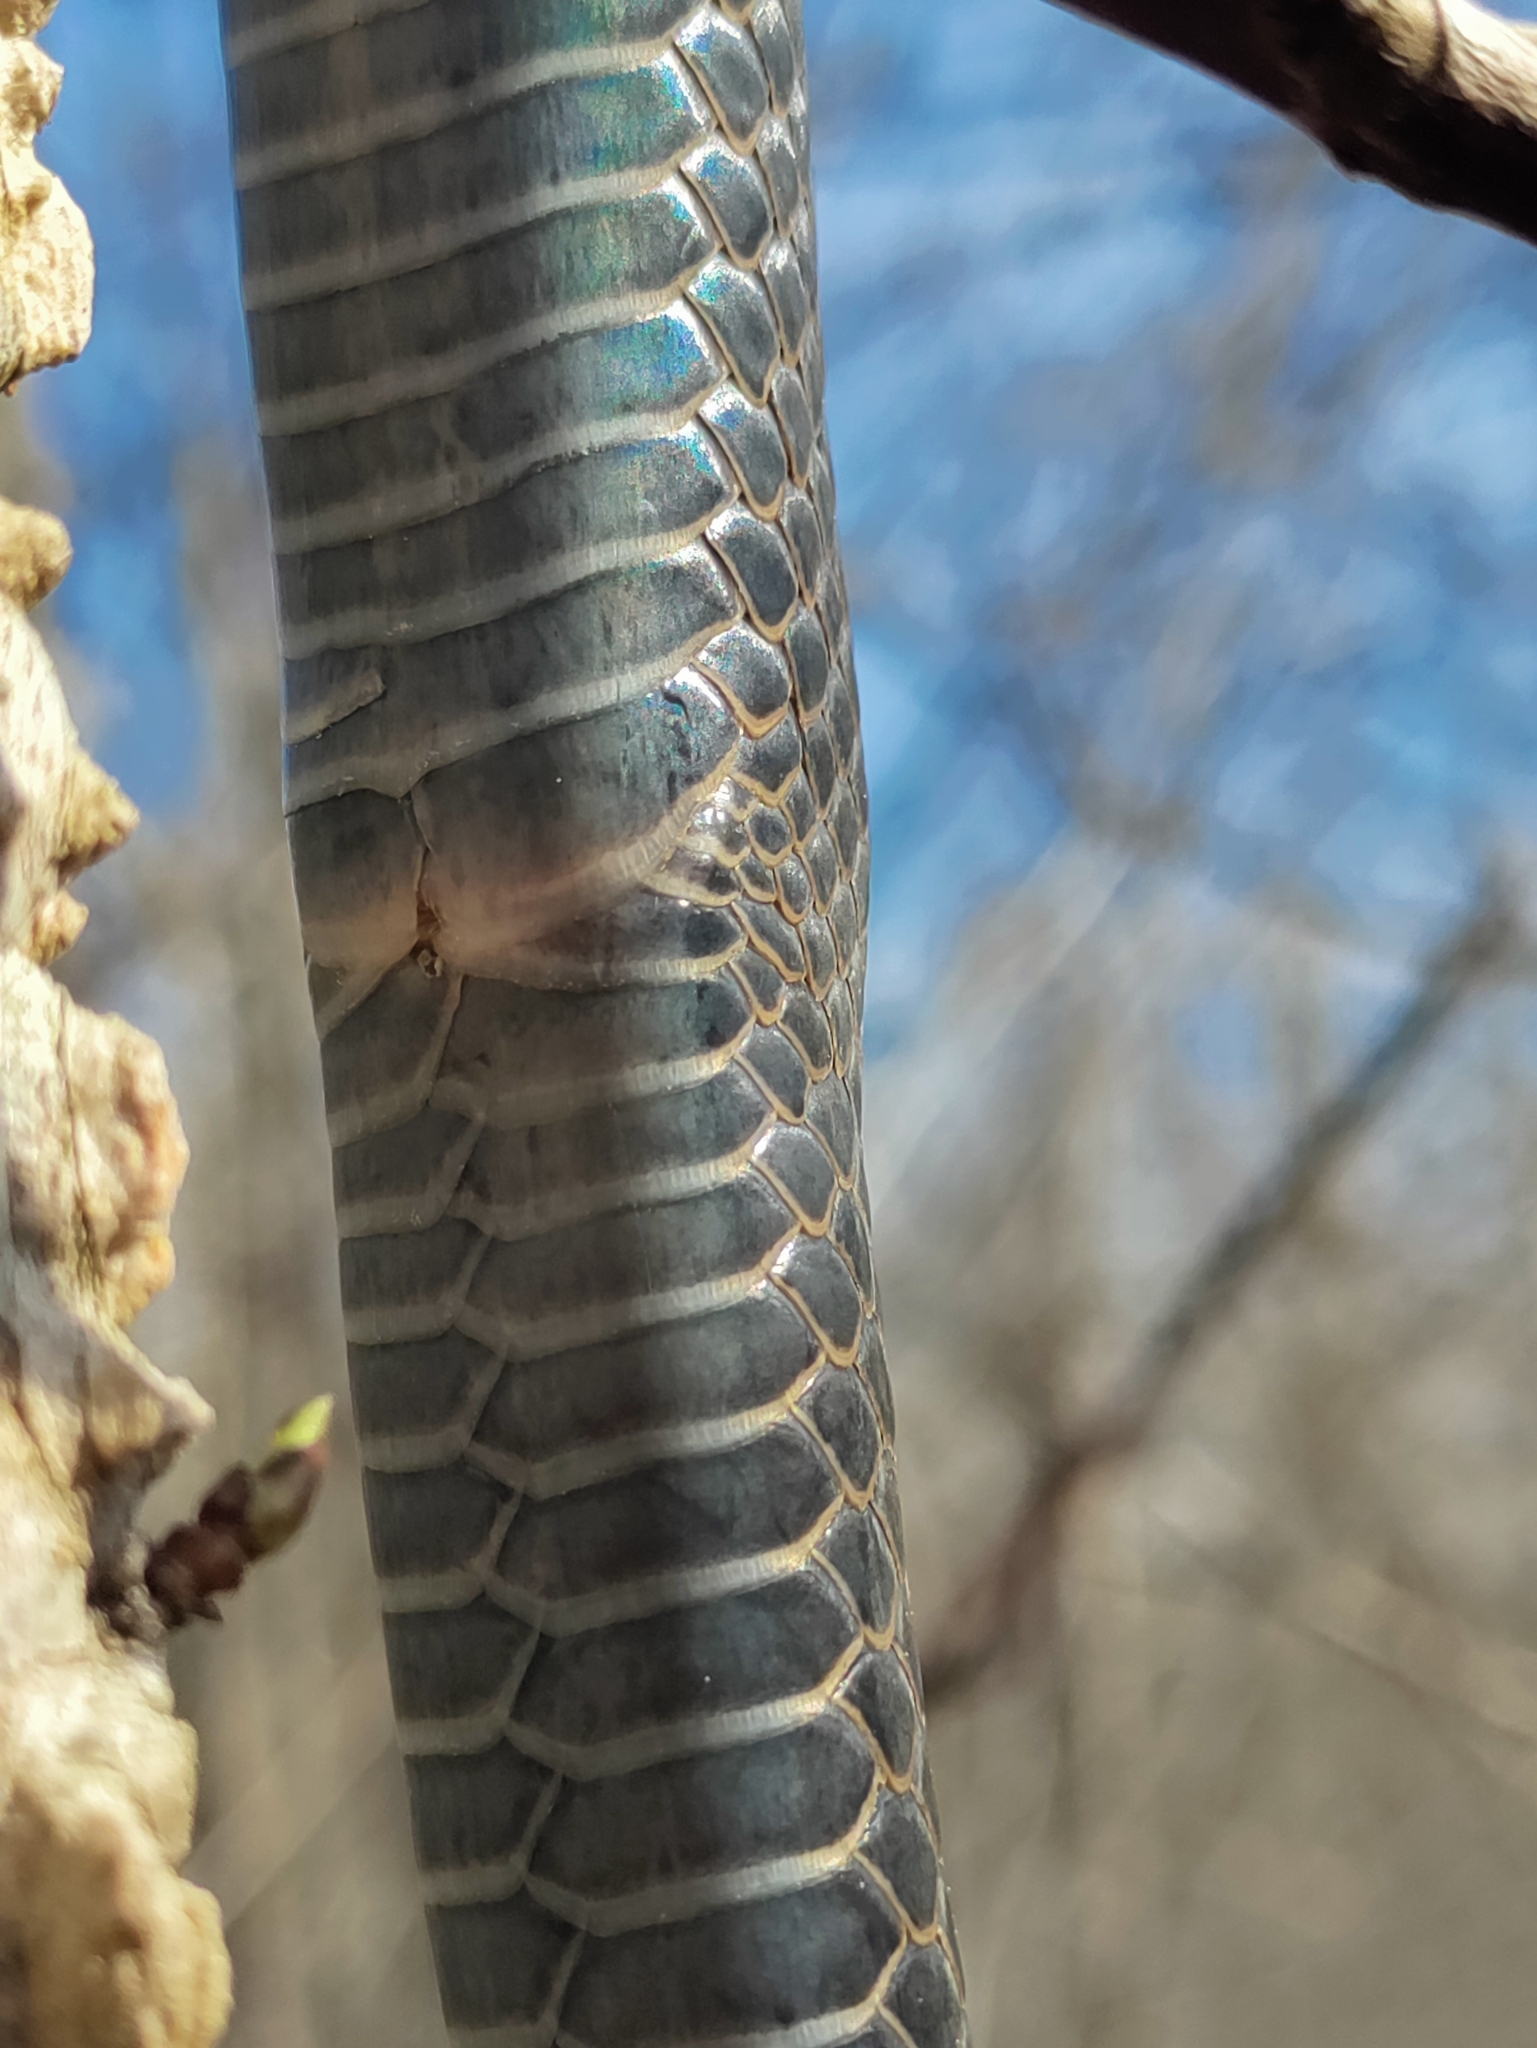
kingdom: Animalia
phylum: Chordata
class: Squamata
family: Colubridae
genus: Coluber
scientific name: Coluber constrictor
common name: Eastern racer
